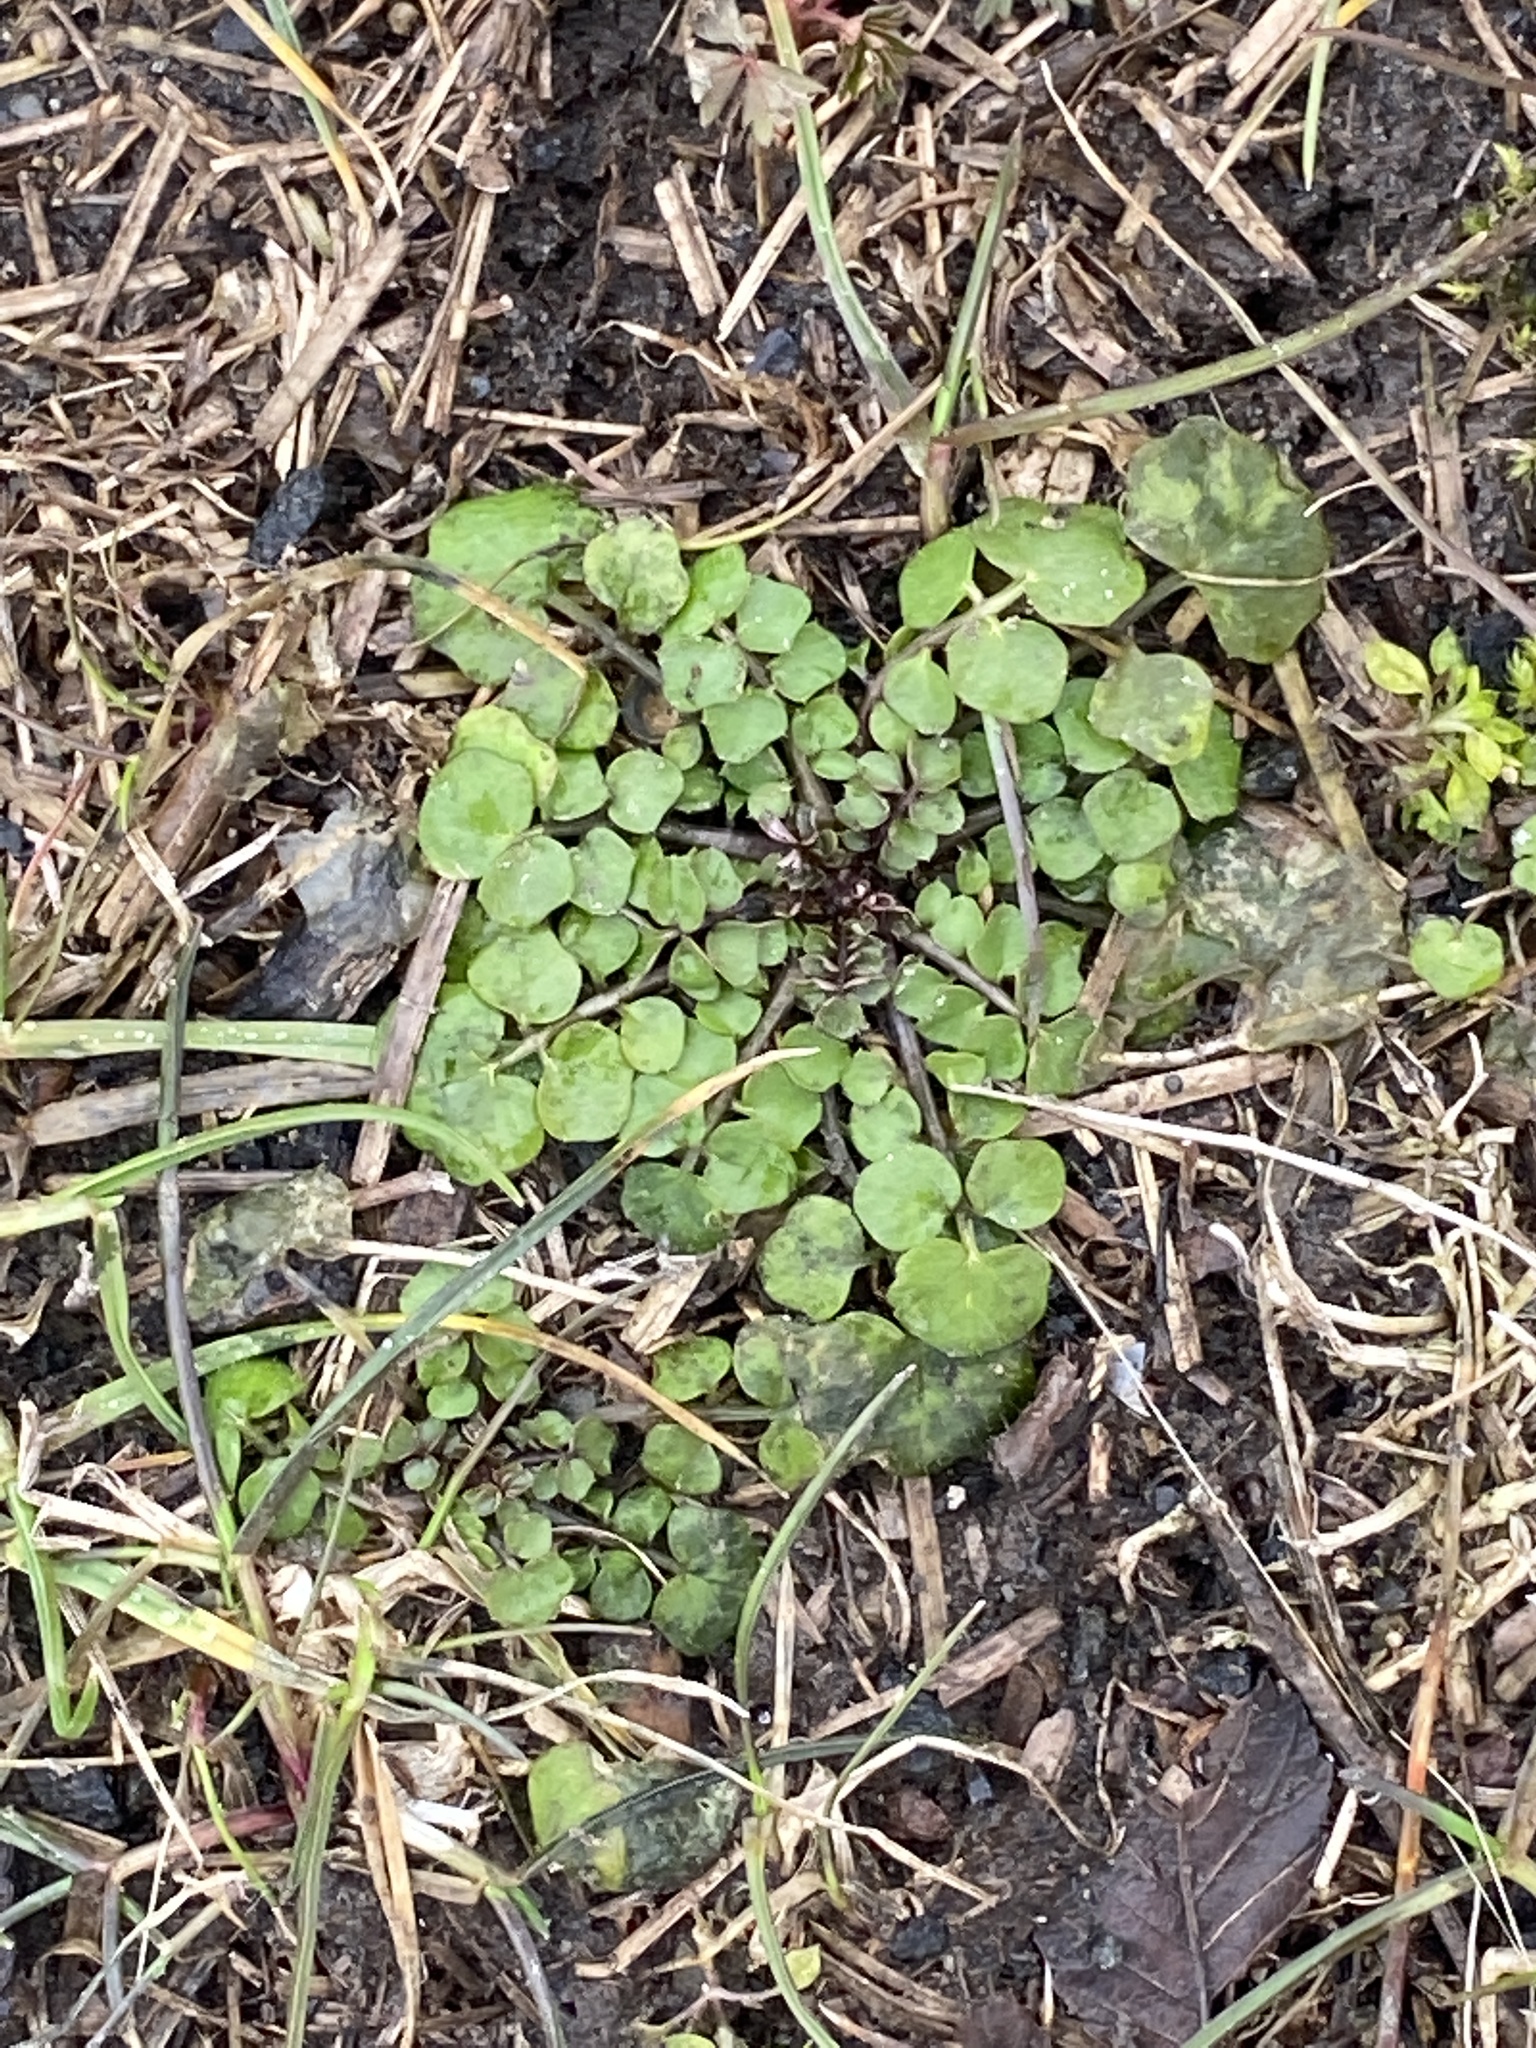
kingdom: Plantae
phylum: Tracheophyta
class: Magnoliopsida
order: Brassicales
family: Brassicaceae
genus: Cardamine
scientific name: Cardamine hirsuta
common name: Hairy bittercress
